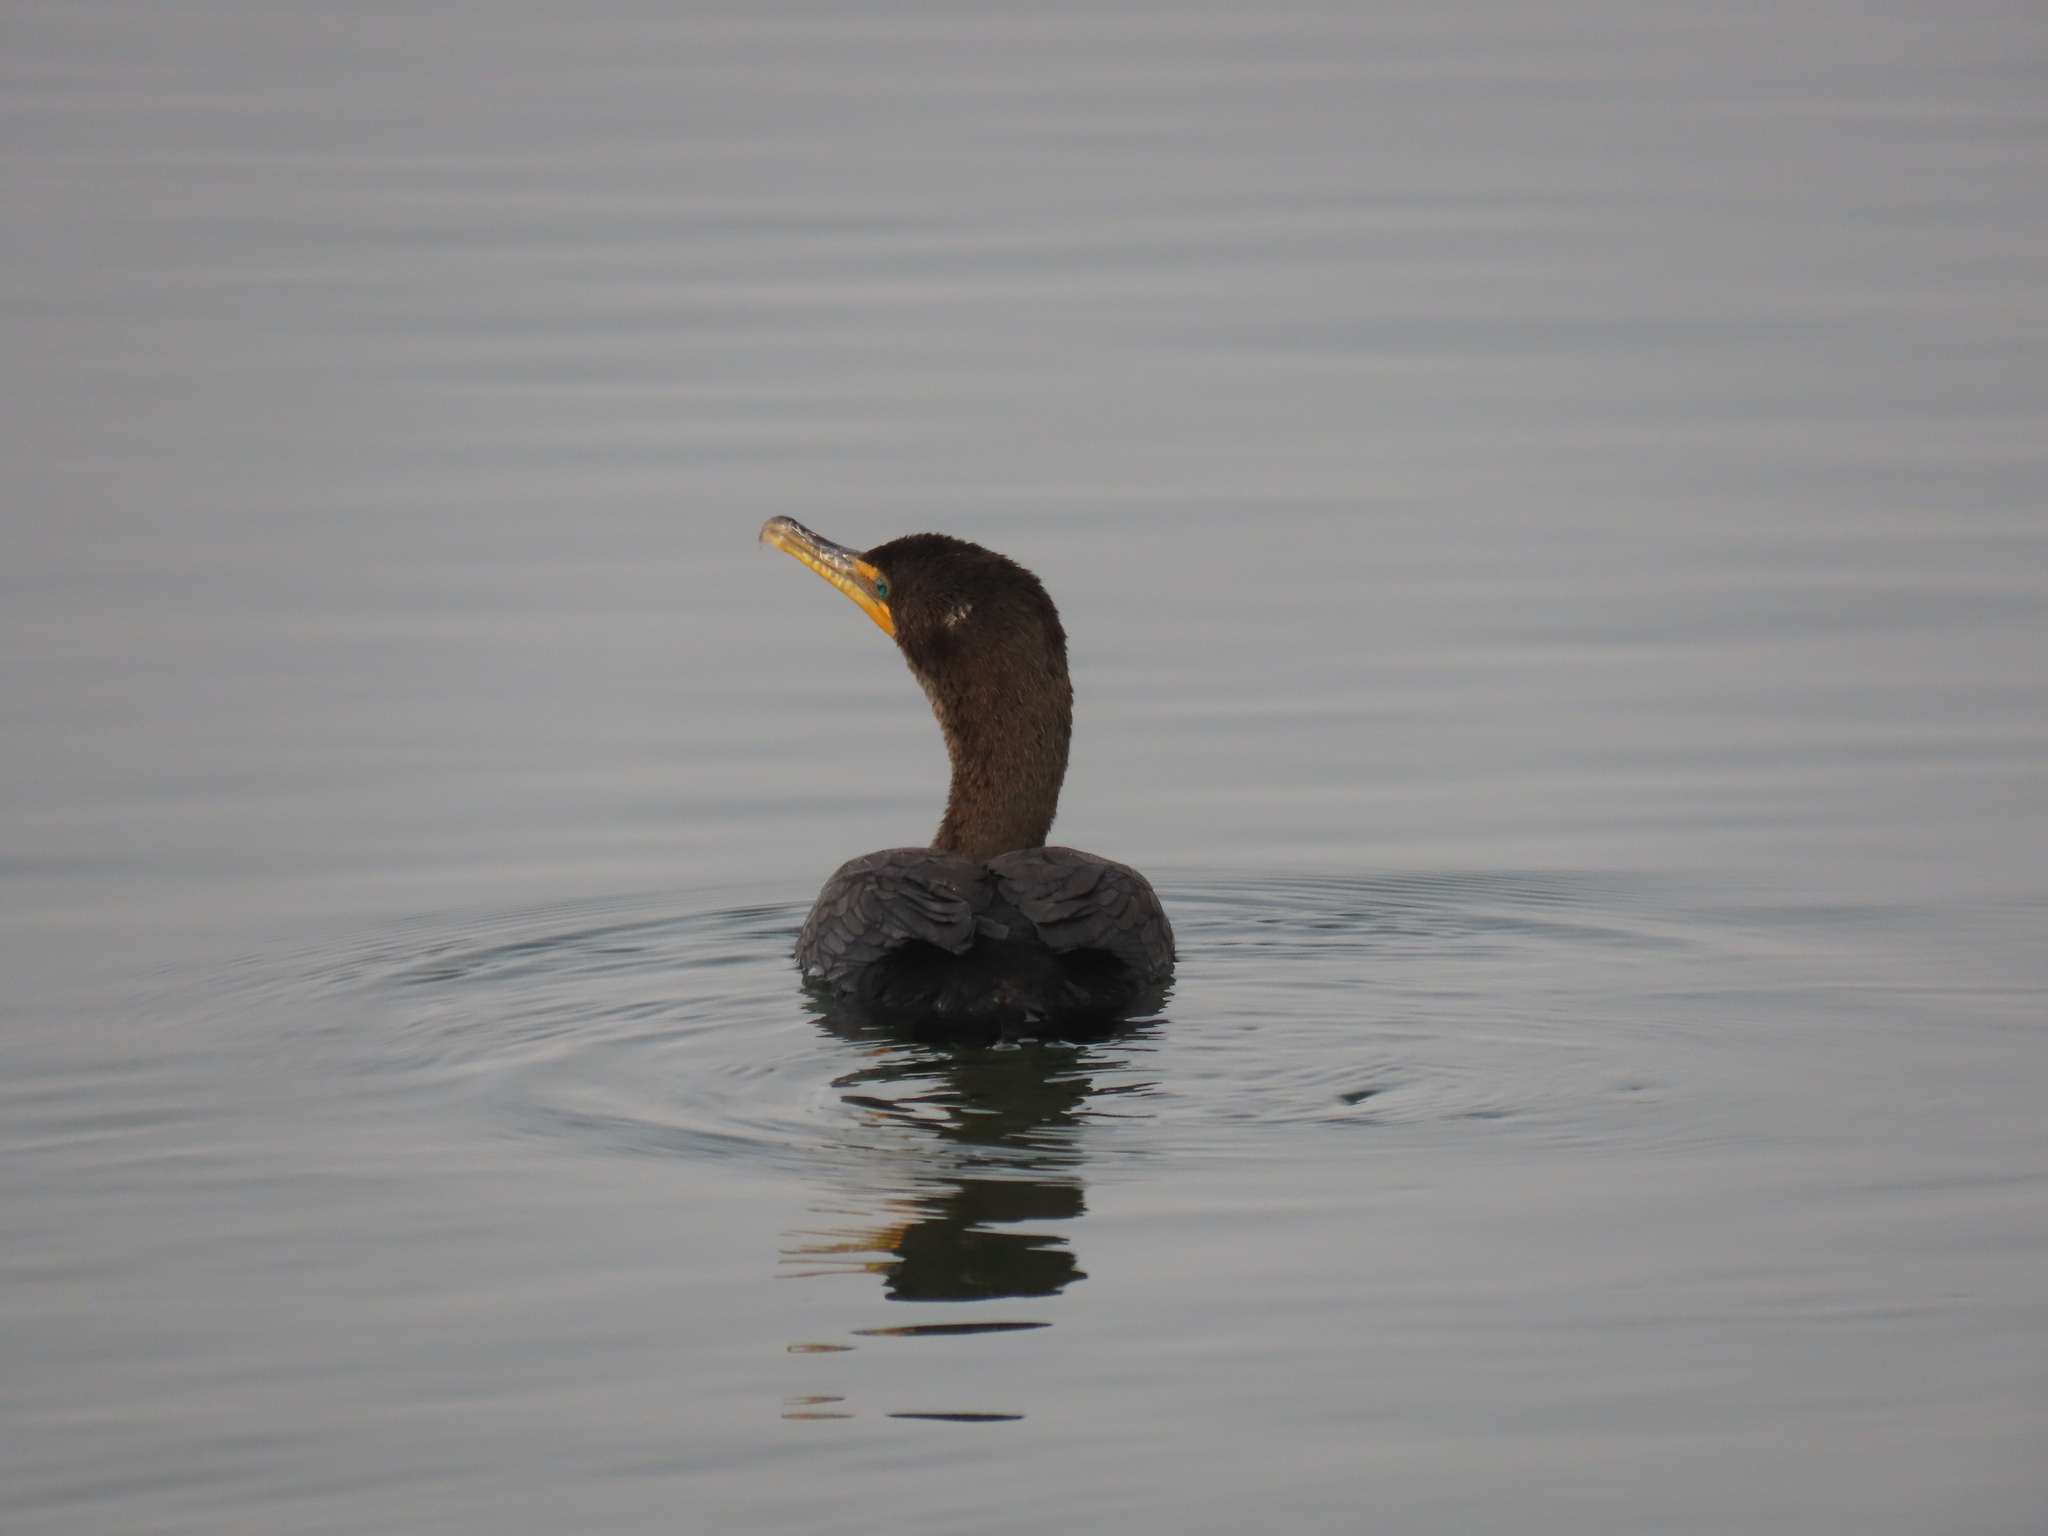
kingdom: Animalia
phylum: Chordata
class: Aves
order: Suliformes
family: Phalacrocoracidae
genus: Phalacrocorax
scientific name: Phalacrocorax auritus
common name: Double-crested cormorant
